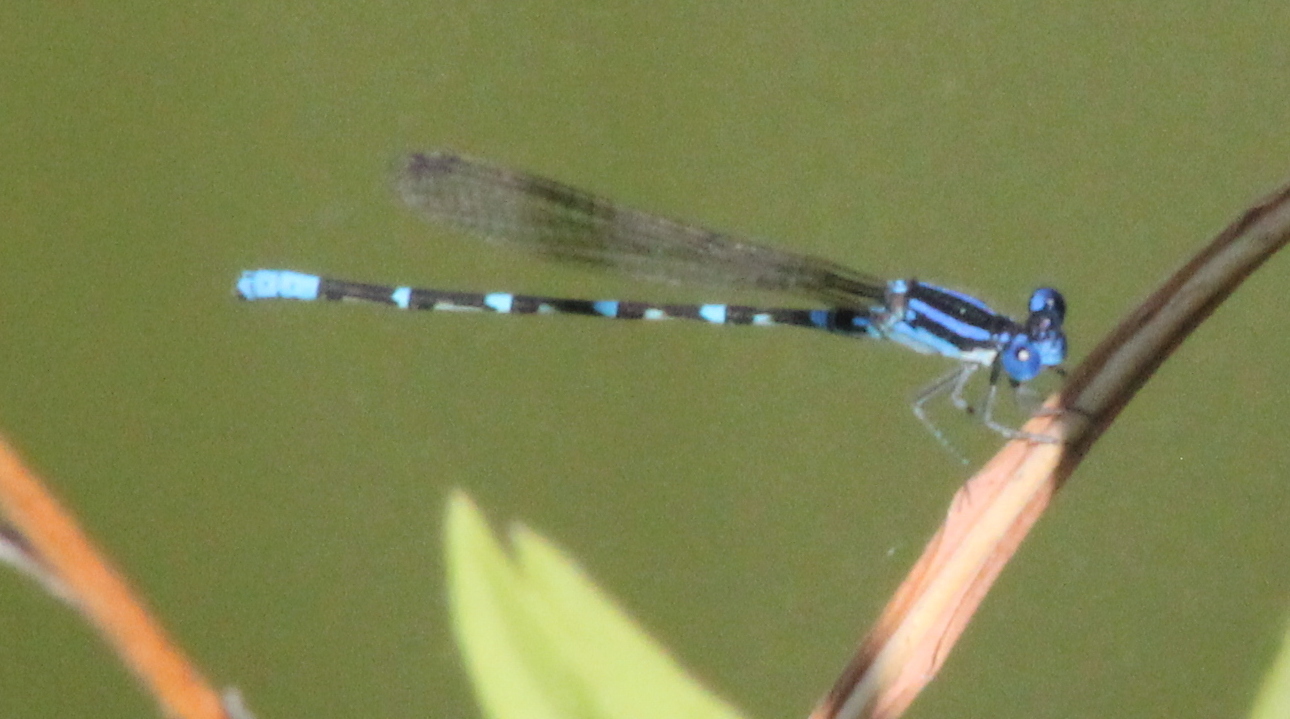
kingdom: Animalia
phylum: Arthropoda
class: Insecta
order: Odonata
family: Coenagrionidae
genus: Argia
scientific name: Argia sedula
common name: Blue-ringed dancer
